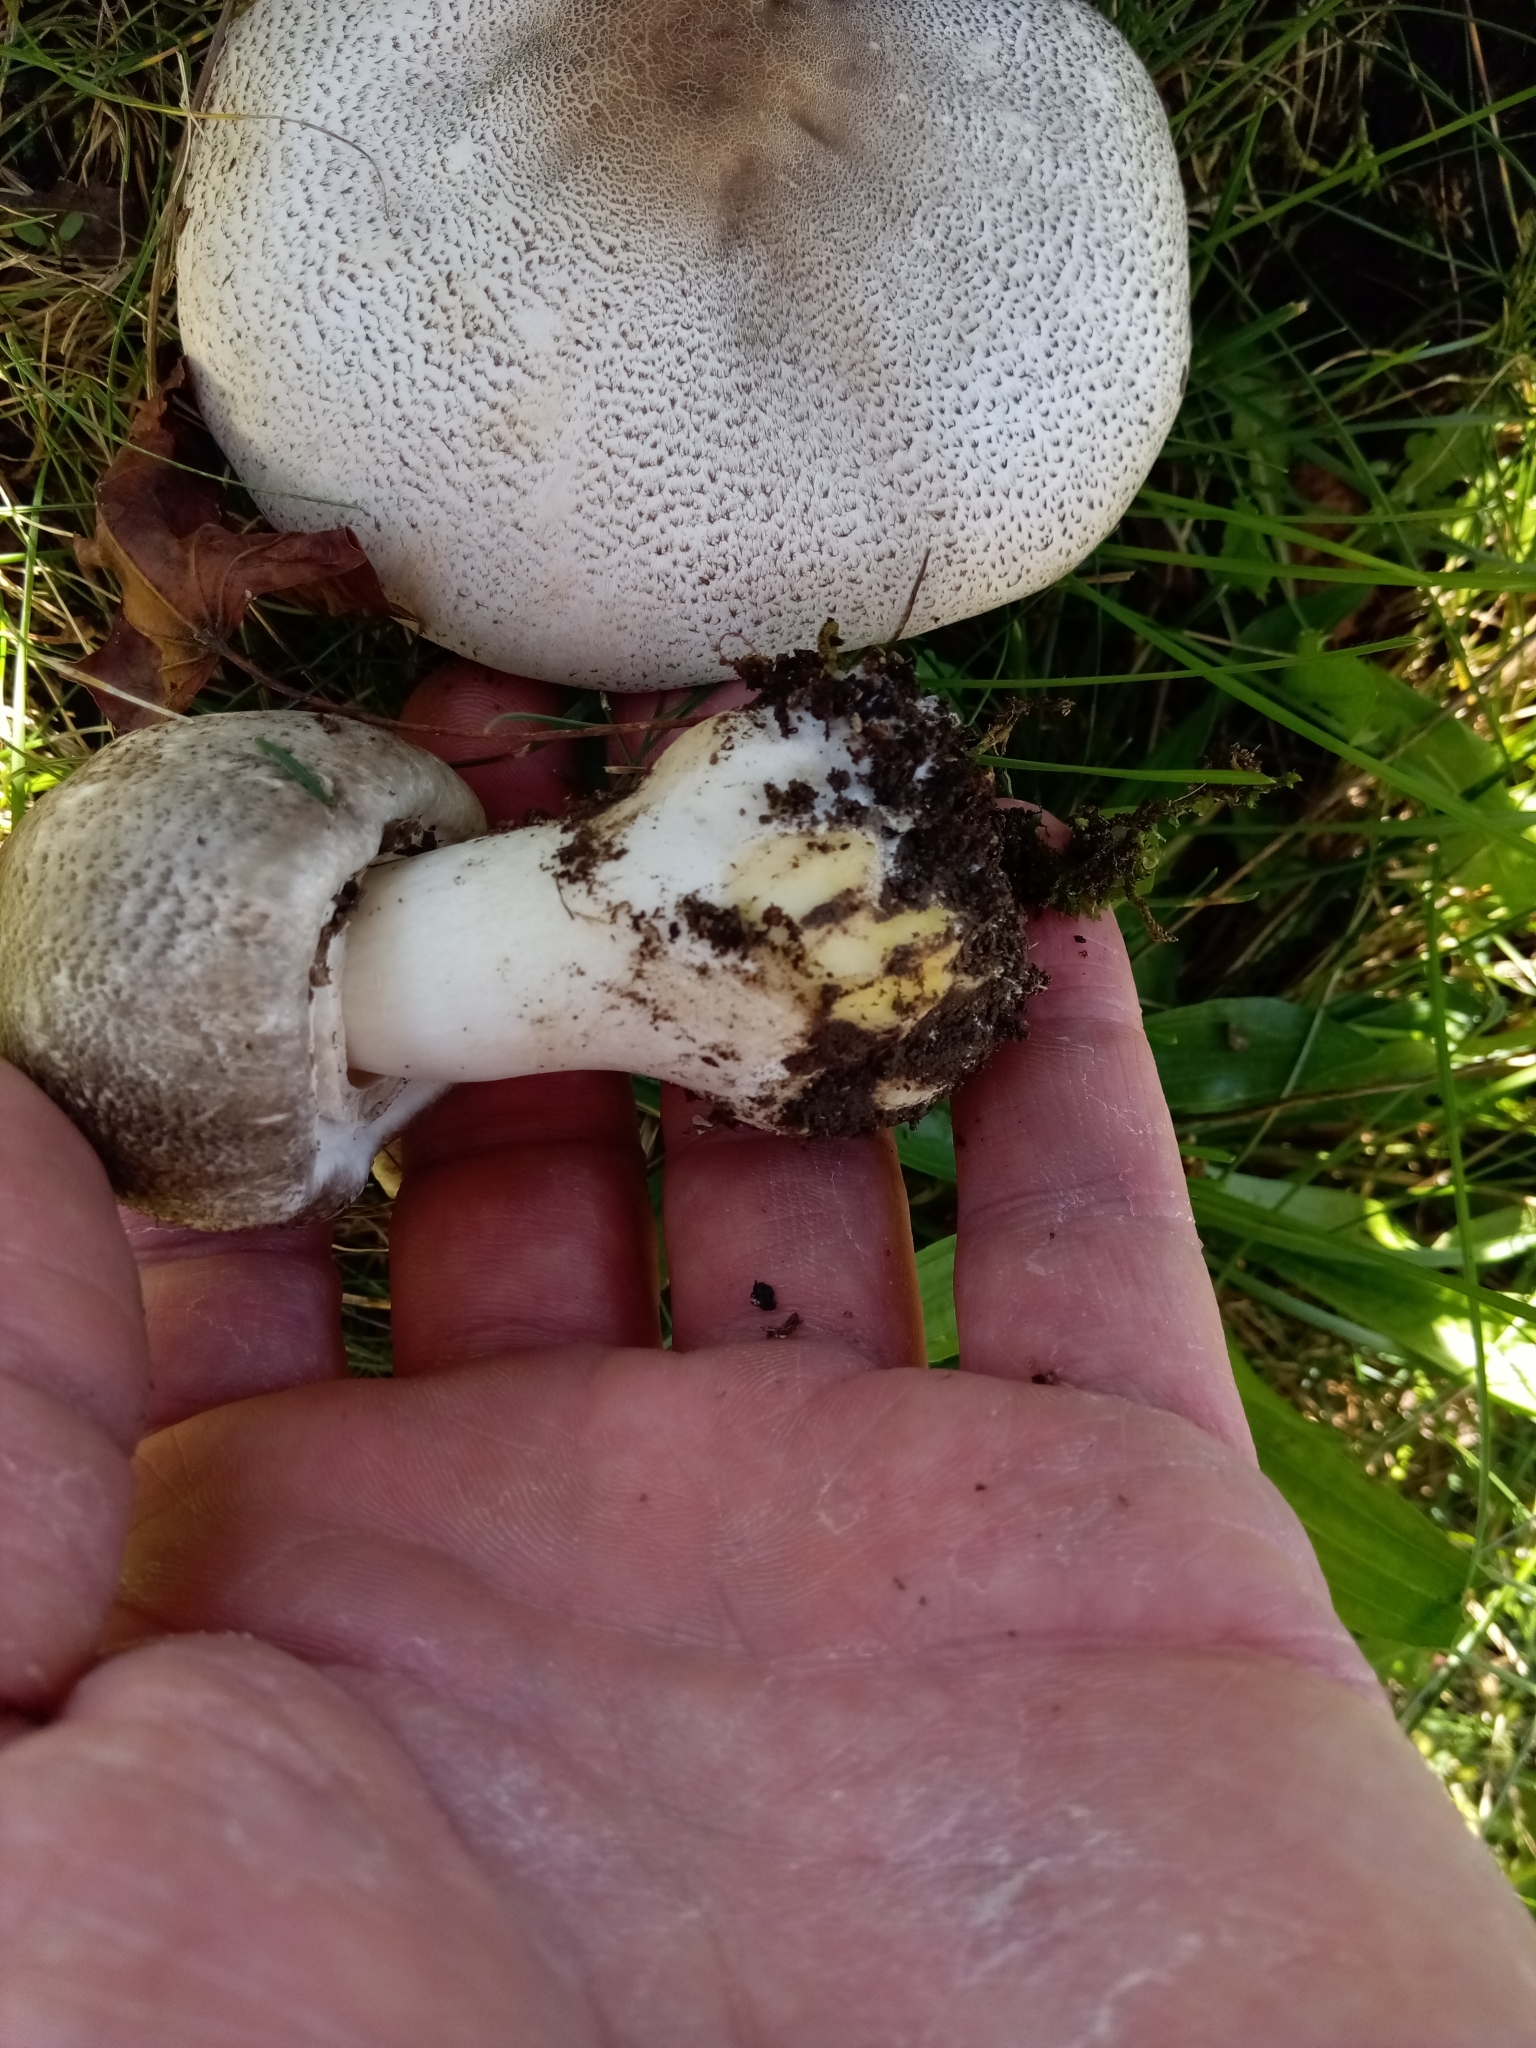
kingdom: Fungi
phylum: Basidiomycota
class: Agaricomycetes
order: Agaricales
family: Agaricaceae
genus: Agaricus
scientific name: Agaricus placomyces
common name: Inky mushroom
